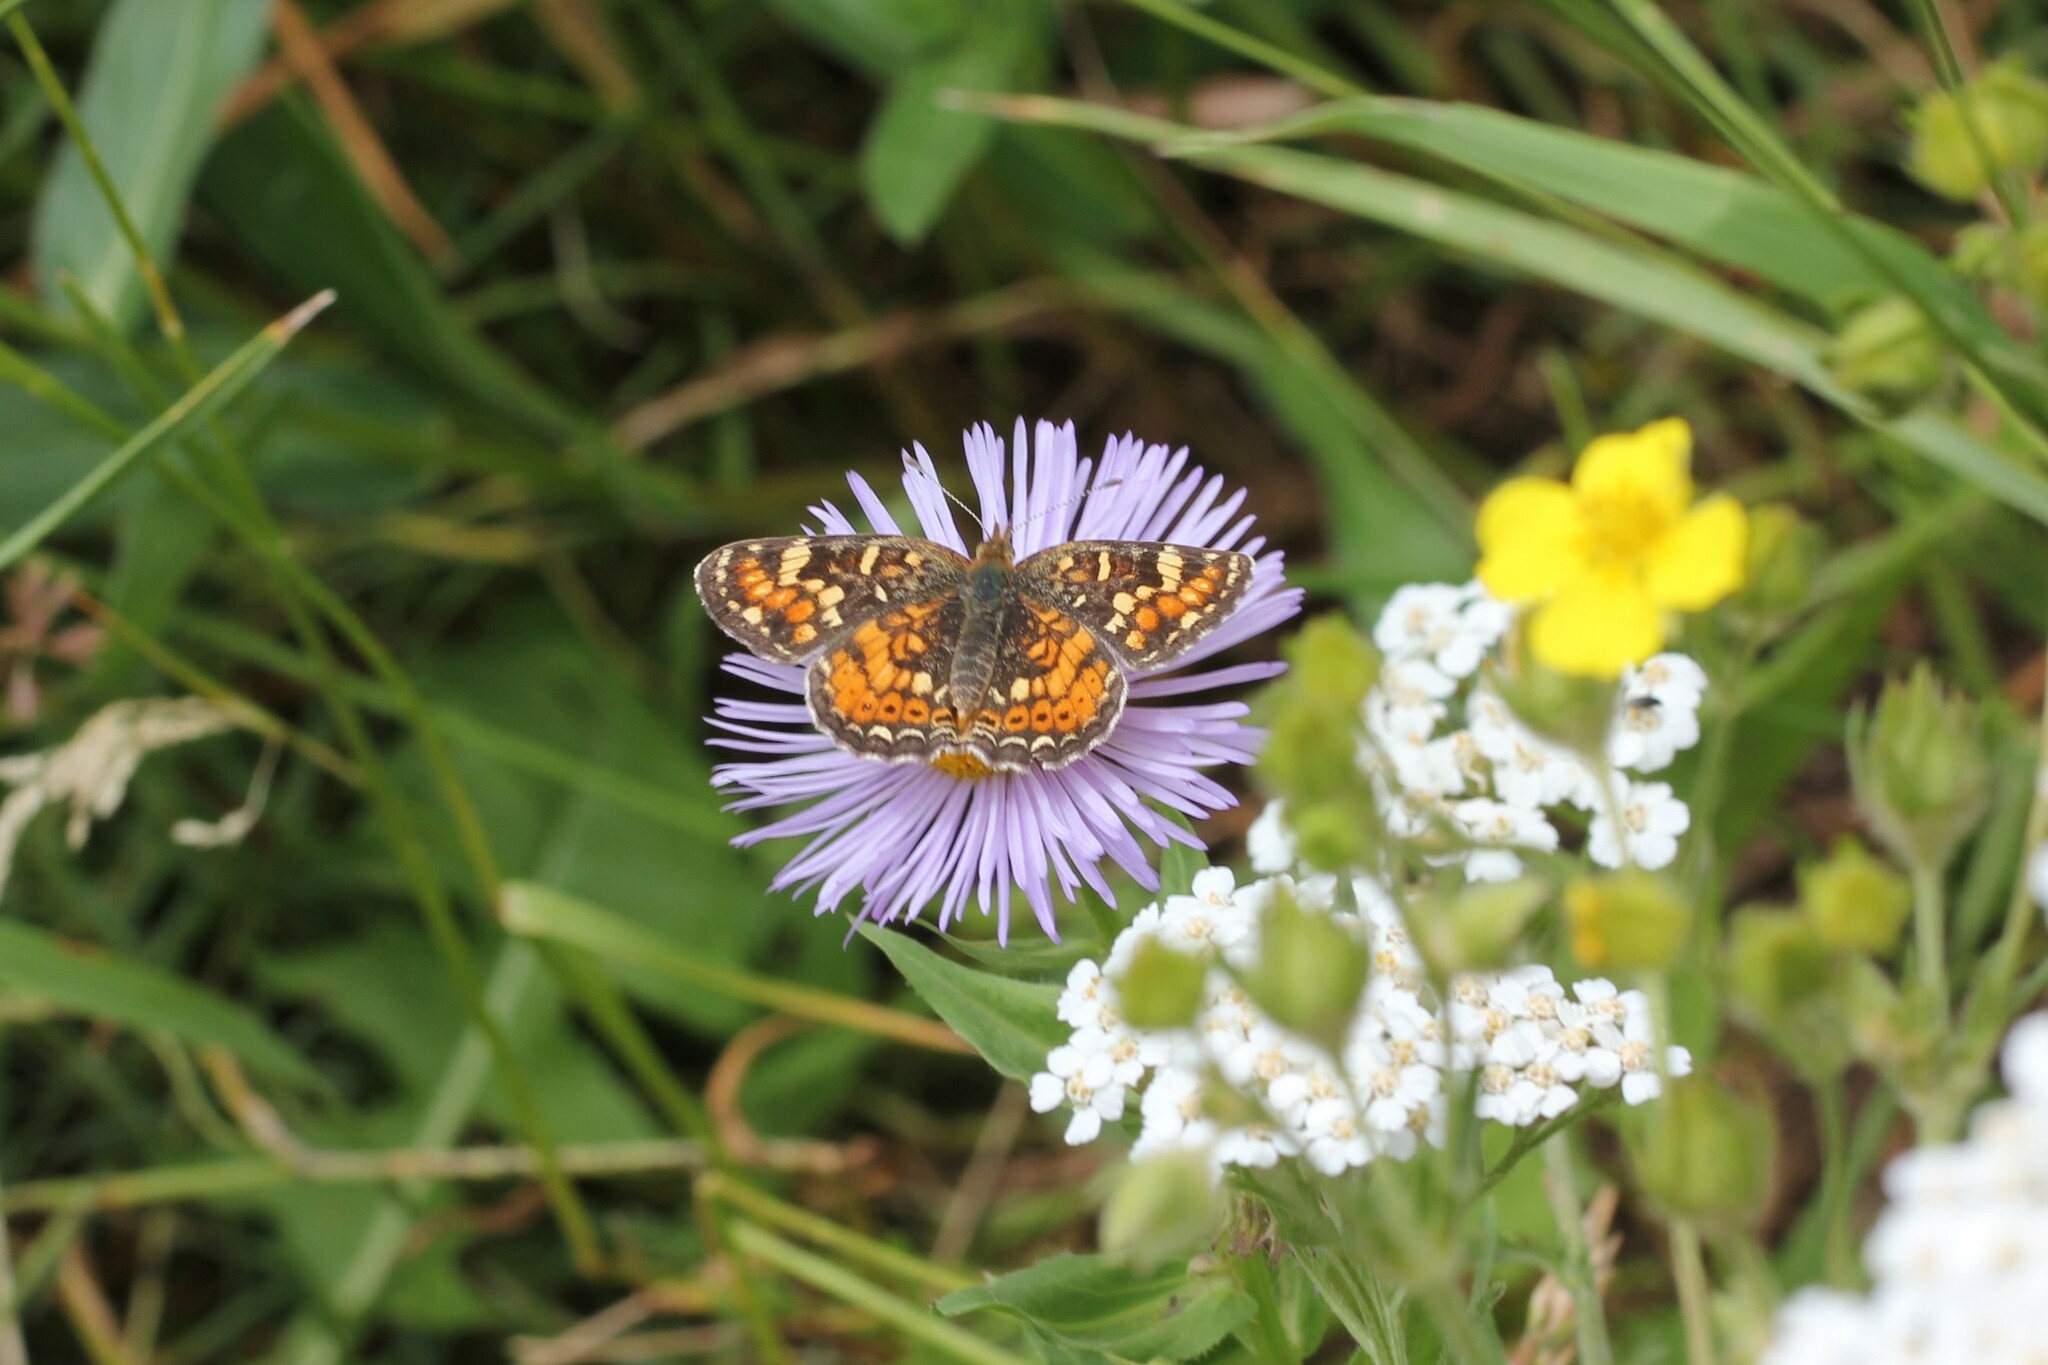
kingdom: Animalia
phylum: Arthropoda
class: Insecta
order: Lepidoptera
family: Nymphalidae
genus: Phyciodes
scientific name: Phyciodes tharos
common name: Pearl crescent
